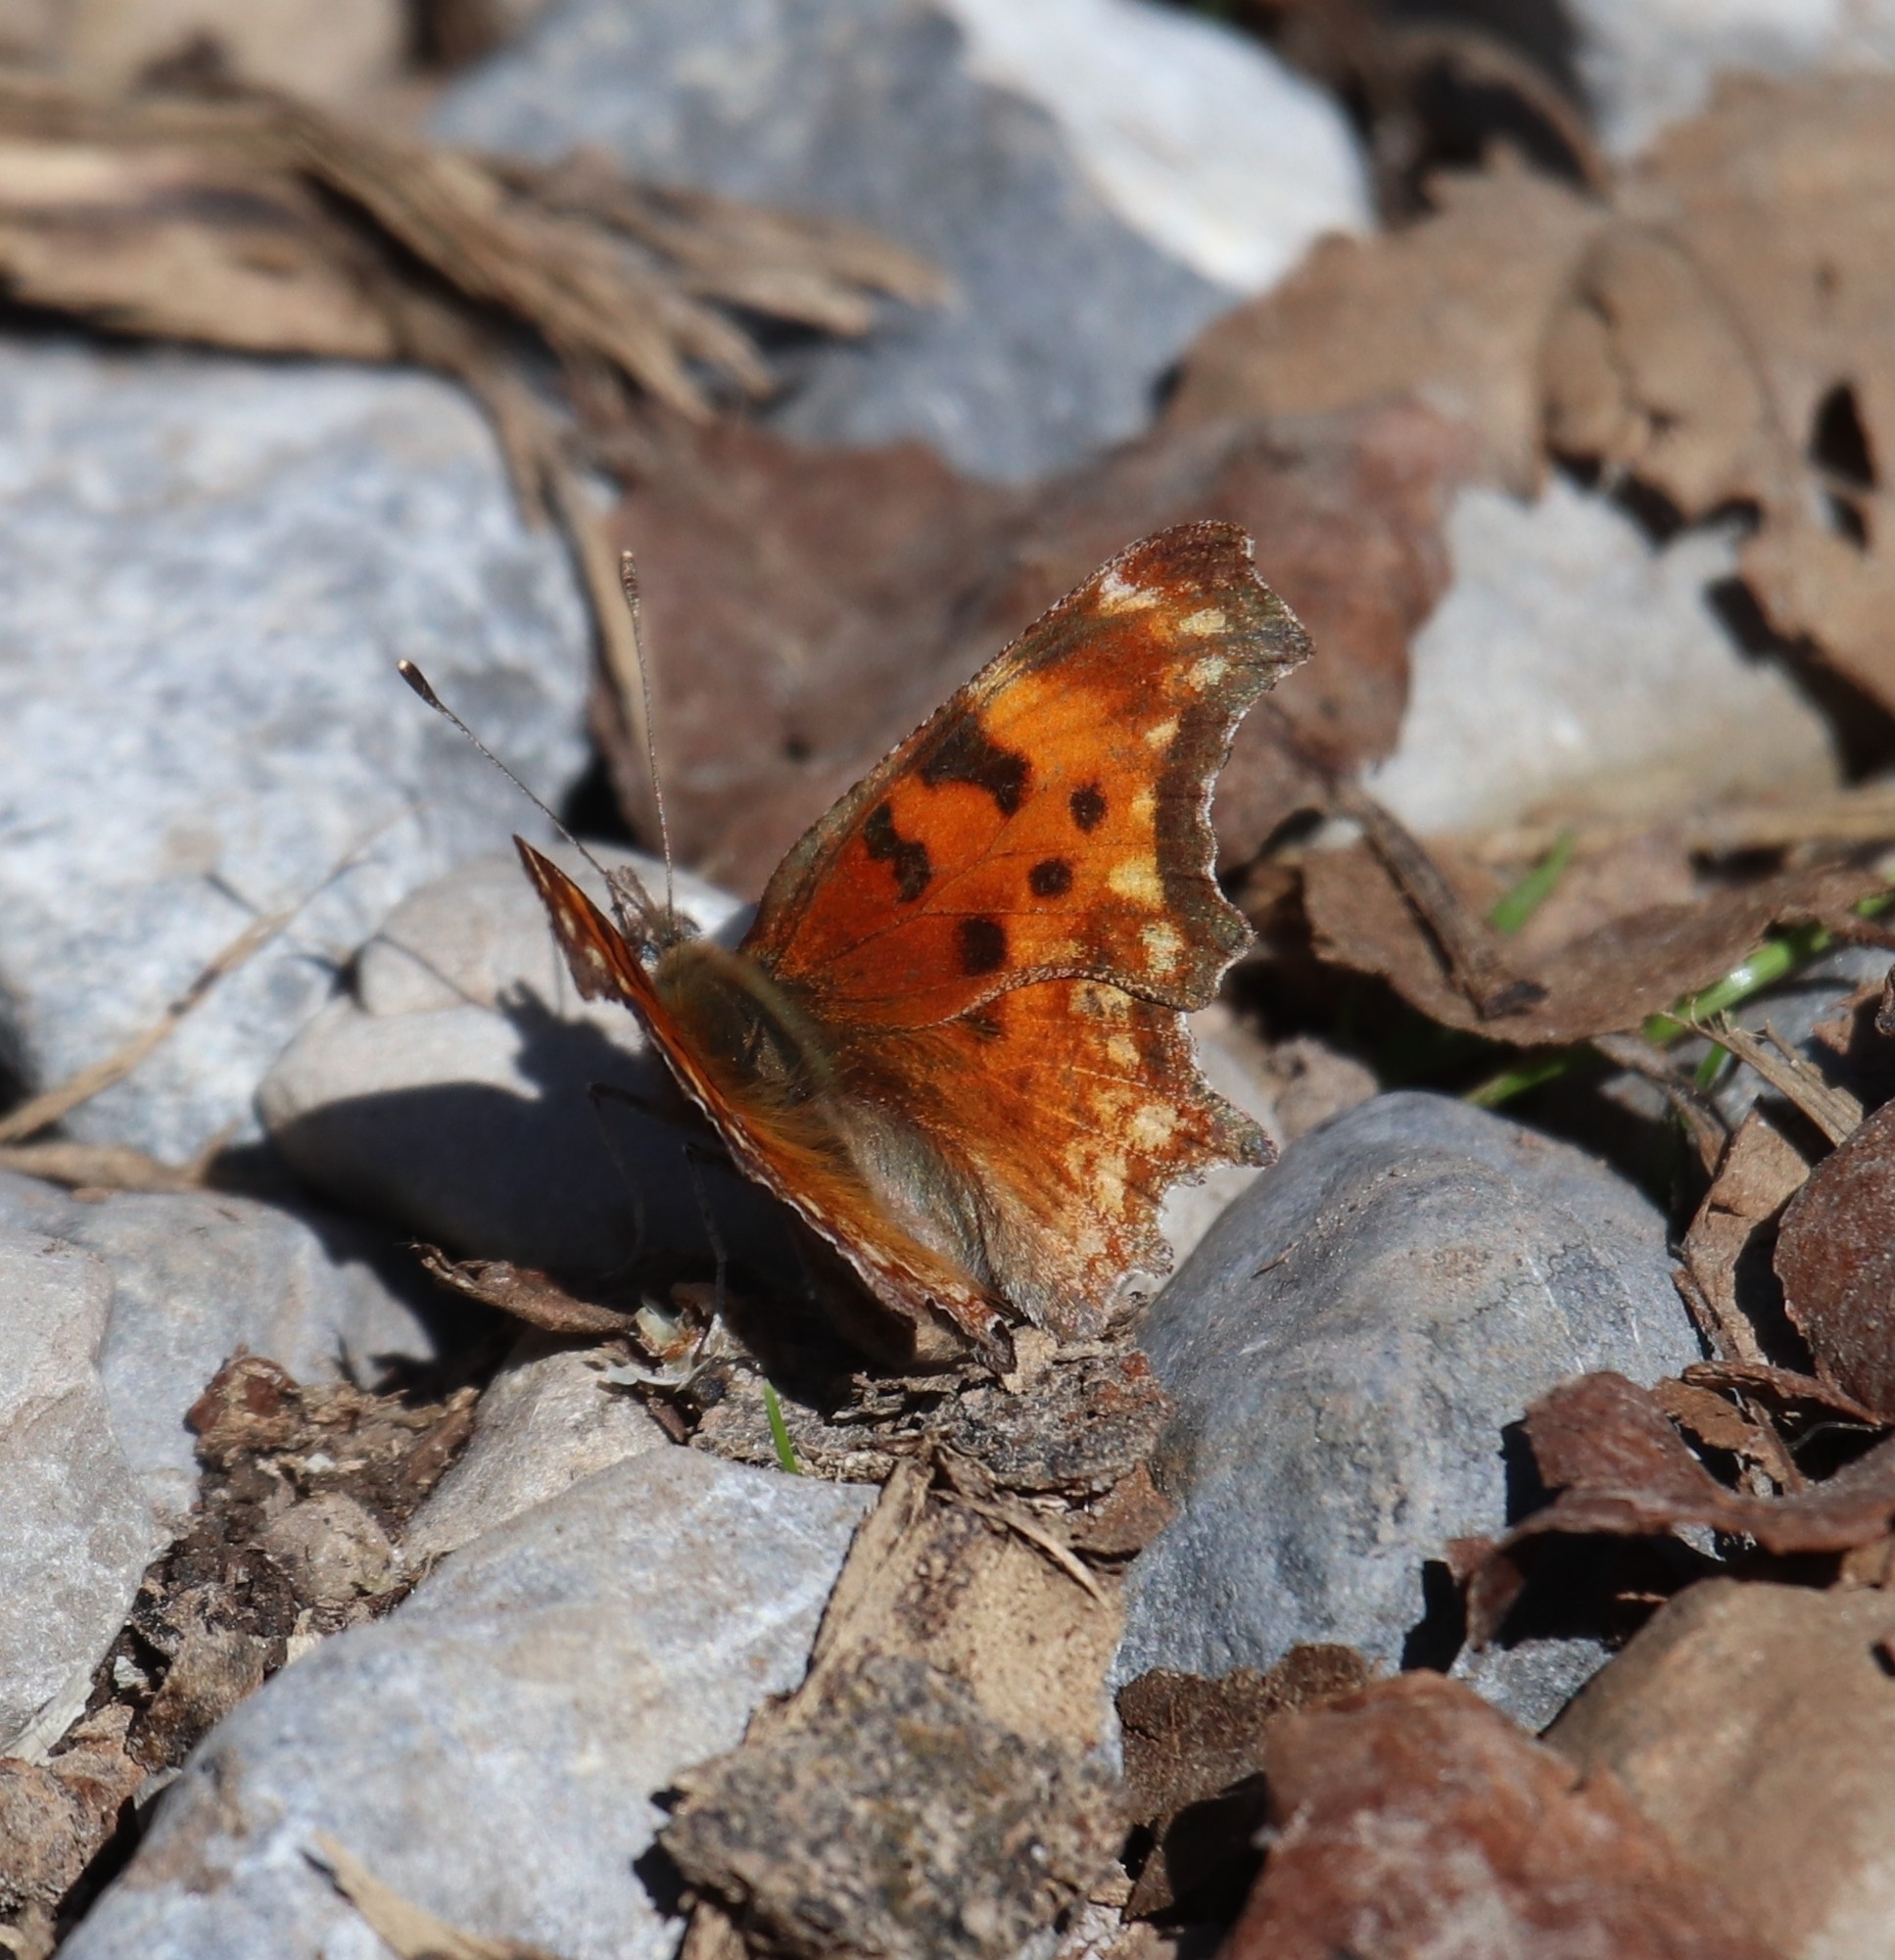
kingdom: Animalia
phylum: Arthropoda
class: Insecta
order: Lepidoptera
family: Nymphalidae
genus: Polygonia
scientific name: Polygonia gracilis
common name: Hoary comma
